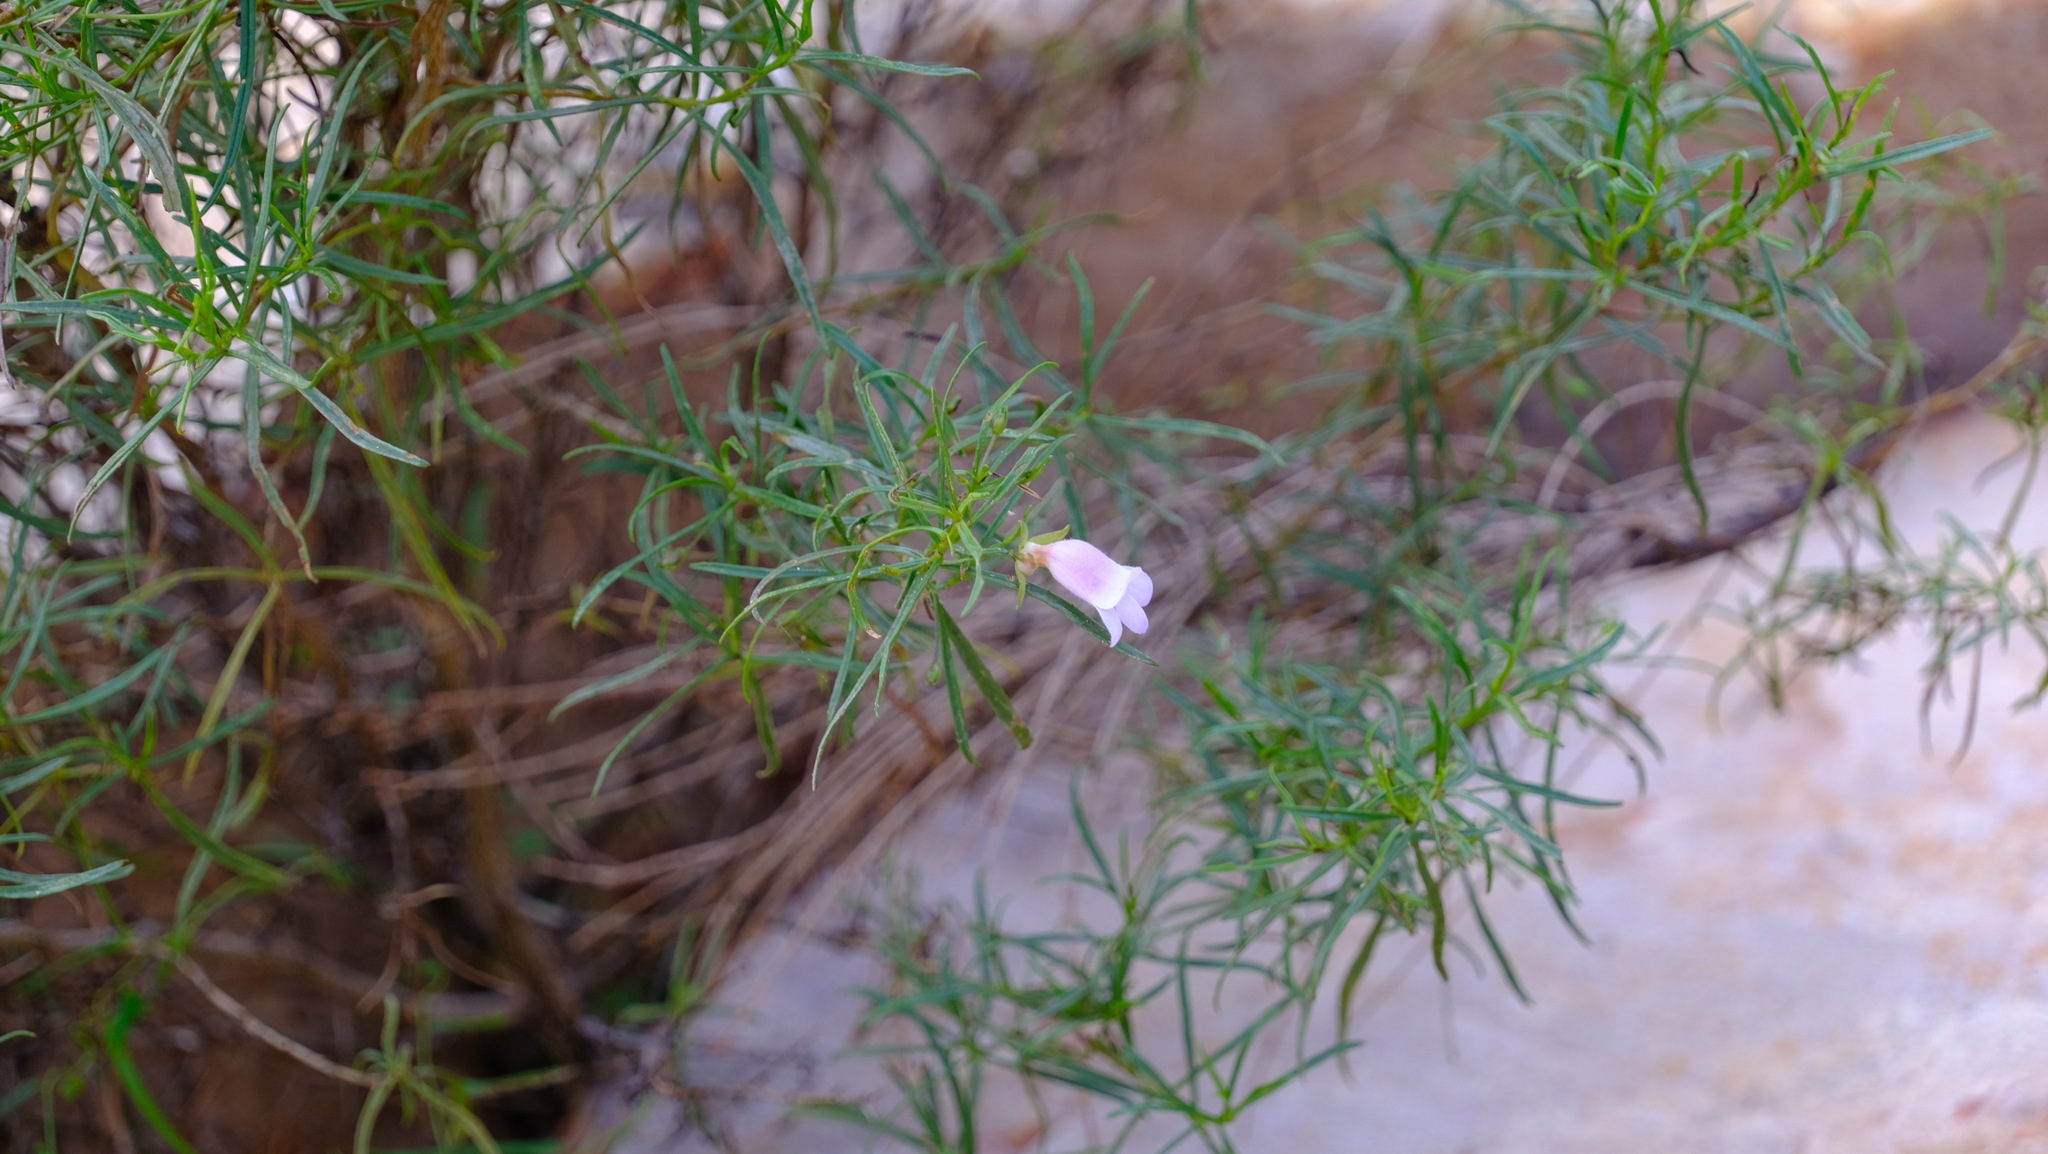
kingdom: Plantae
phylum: Tracheophyta
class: Magnoliopsida
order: Lamiales
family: Scrophulariaceae
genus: Eremophila
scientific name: Eremophila clarkei
